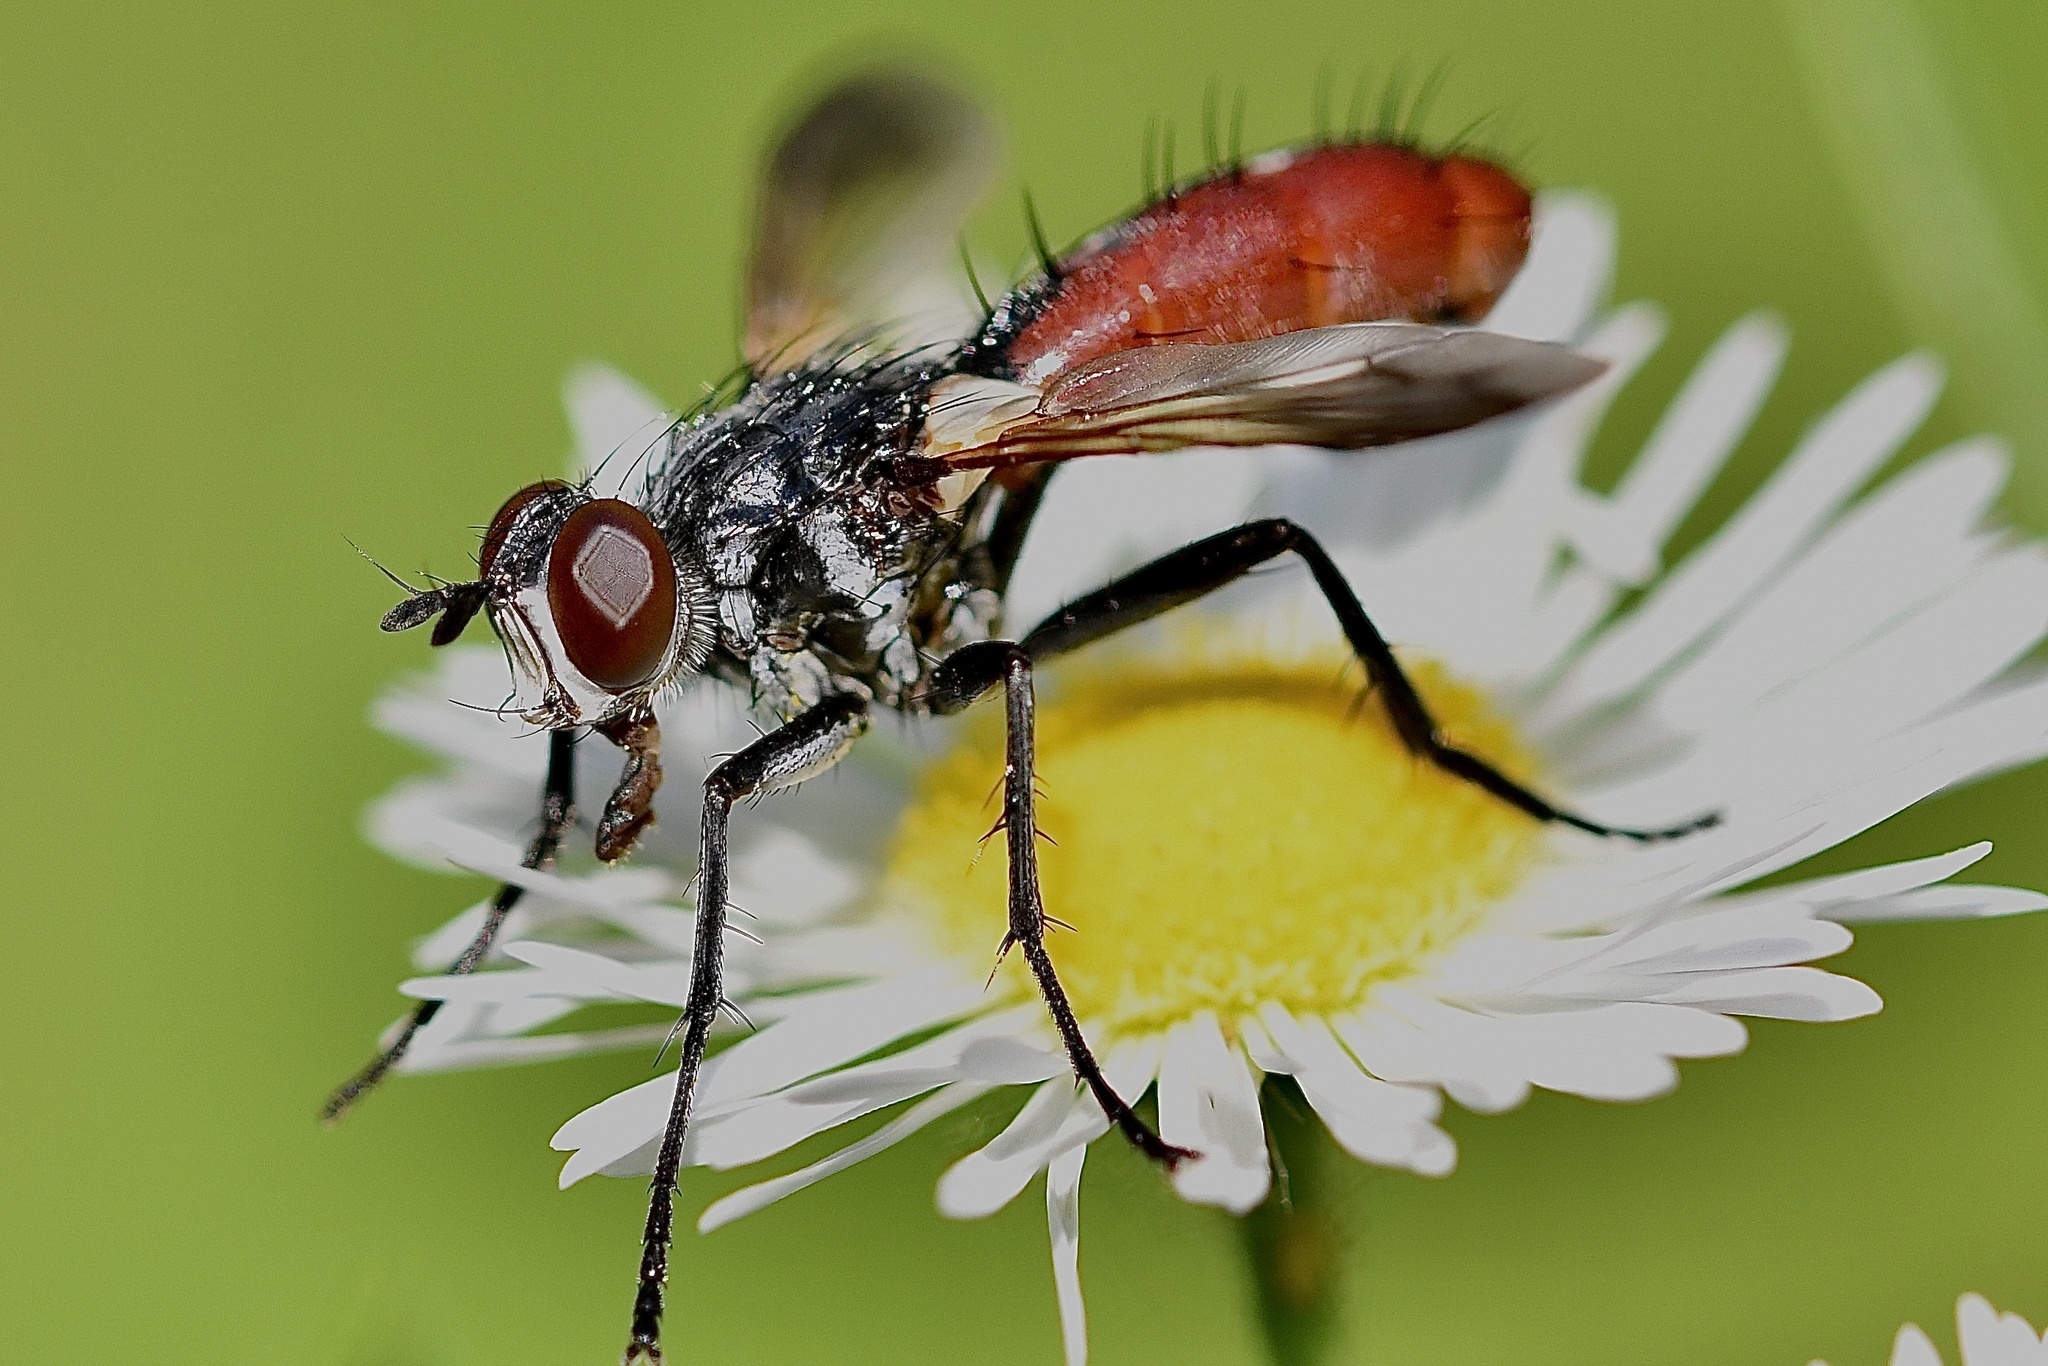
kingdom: Animalia
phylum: Arthropoda
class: Insecta
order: Diptera
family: Tachinidae
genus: Cylindromyia
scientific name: Cylindromyia bicolor
